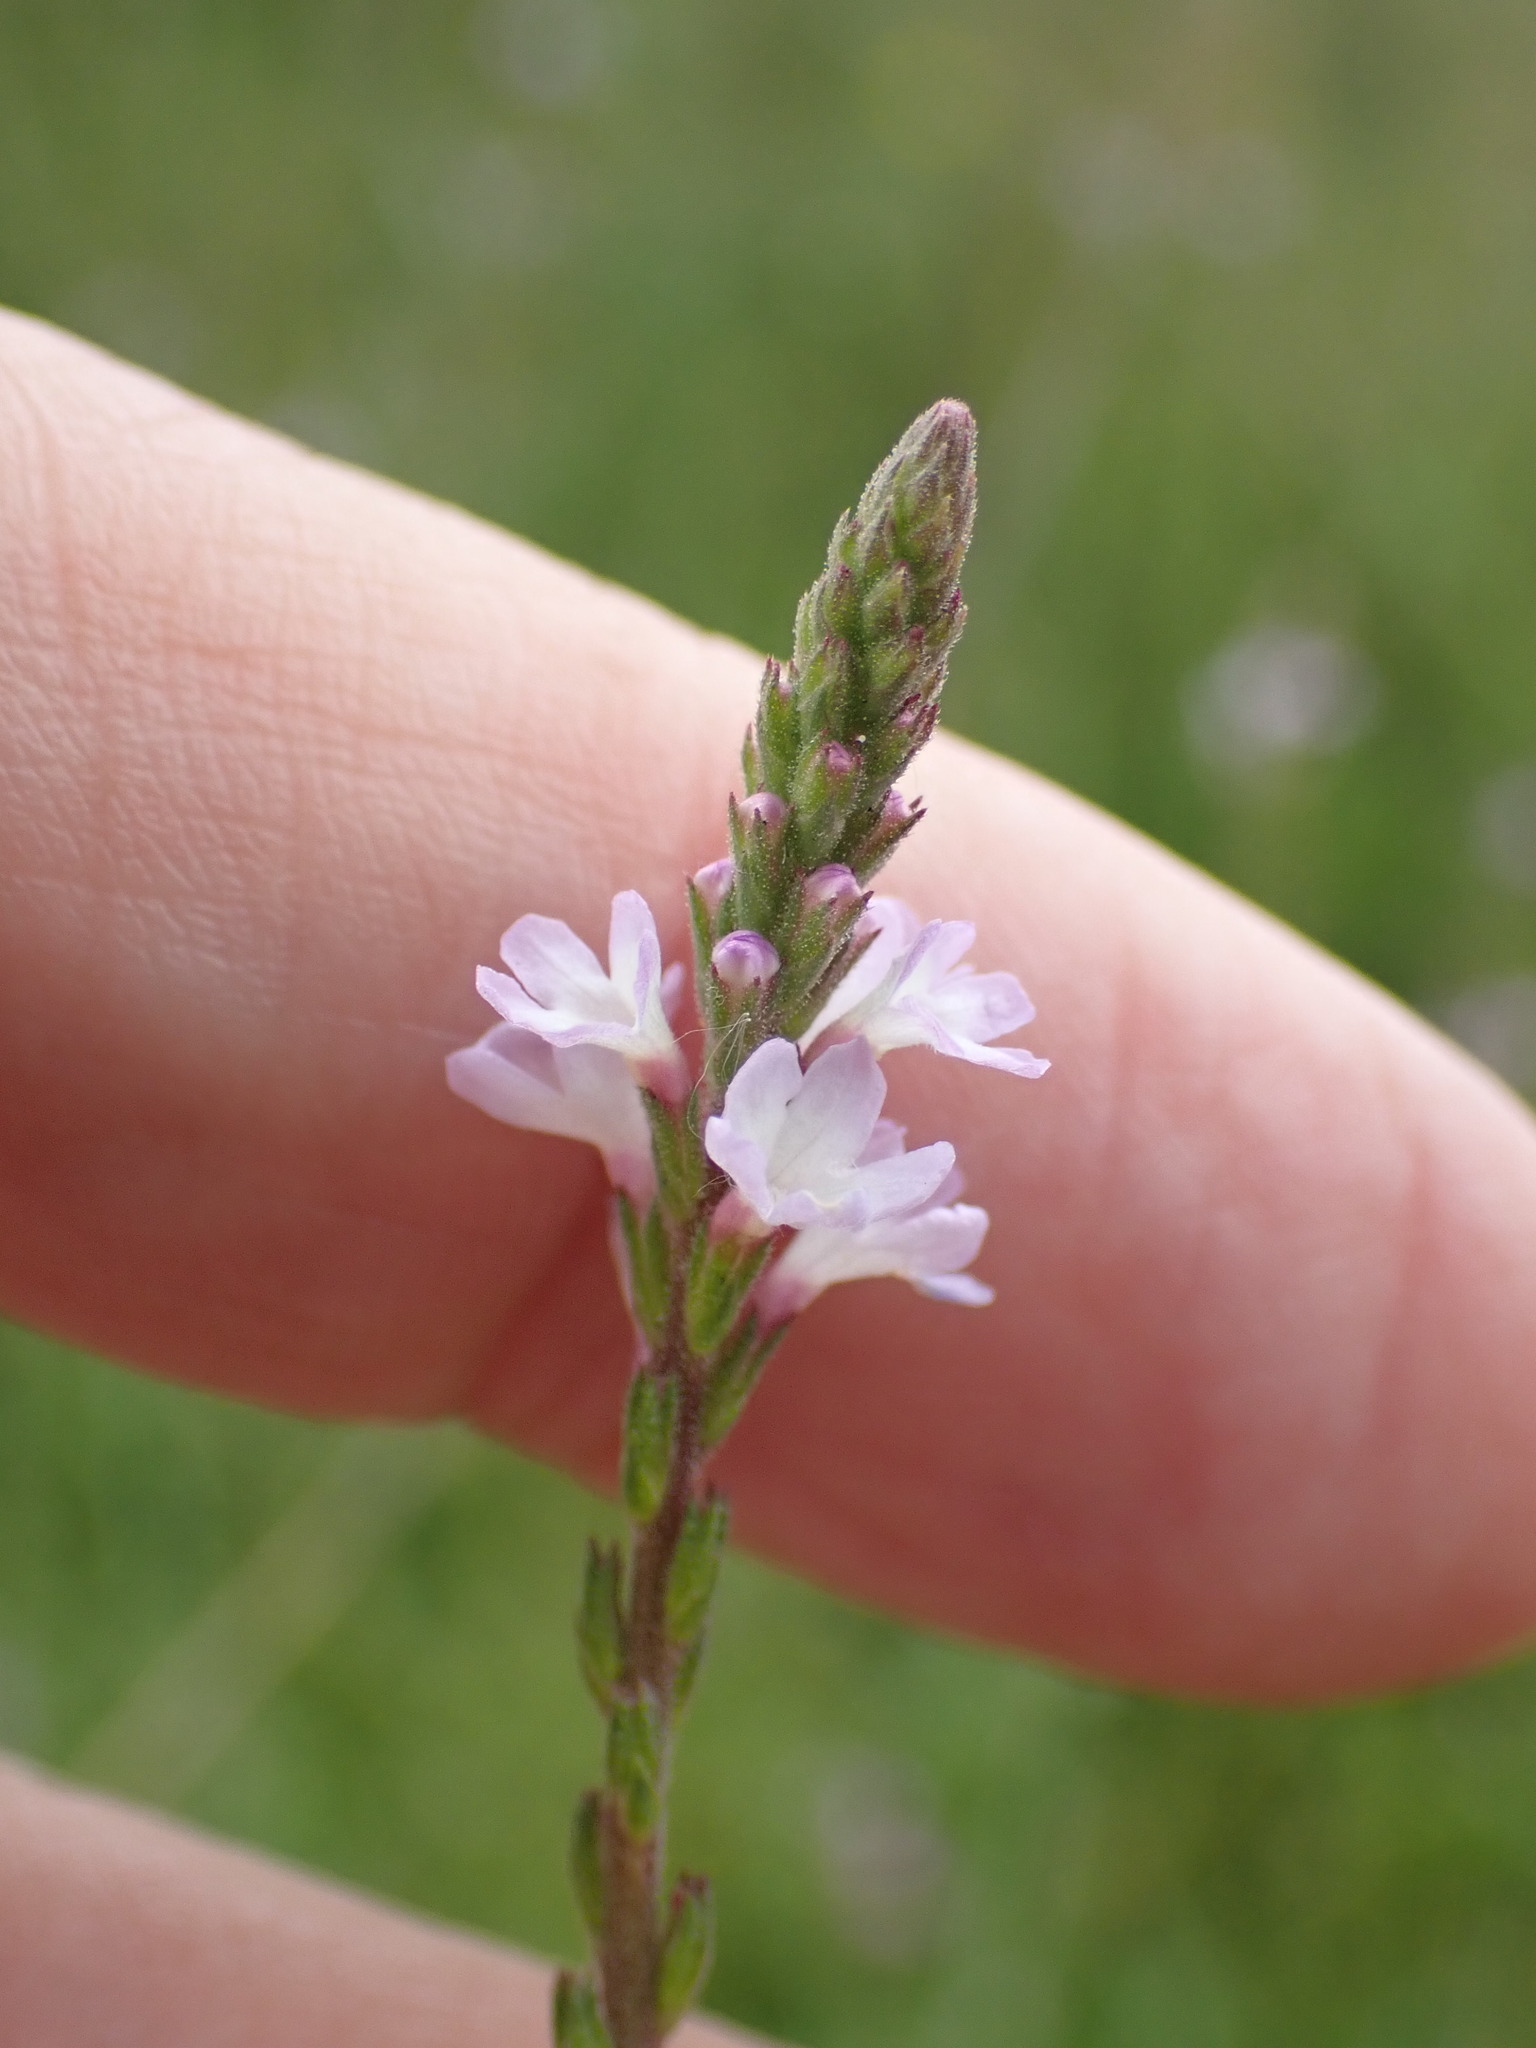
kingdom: Plantae
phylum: Tracheophyta
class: Magnoliopsida
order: Lamiales
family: Verbenaceae
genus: Verbena
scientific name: Verbena officinalis
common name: Vervain
